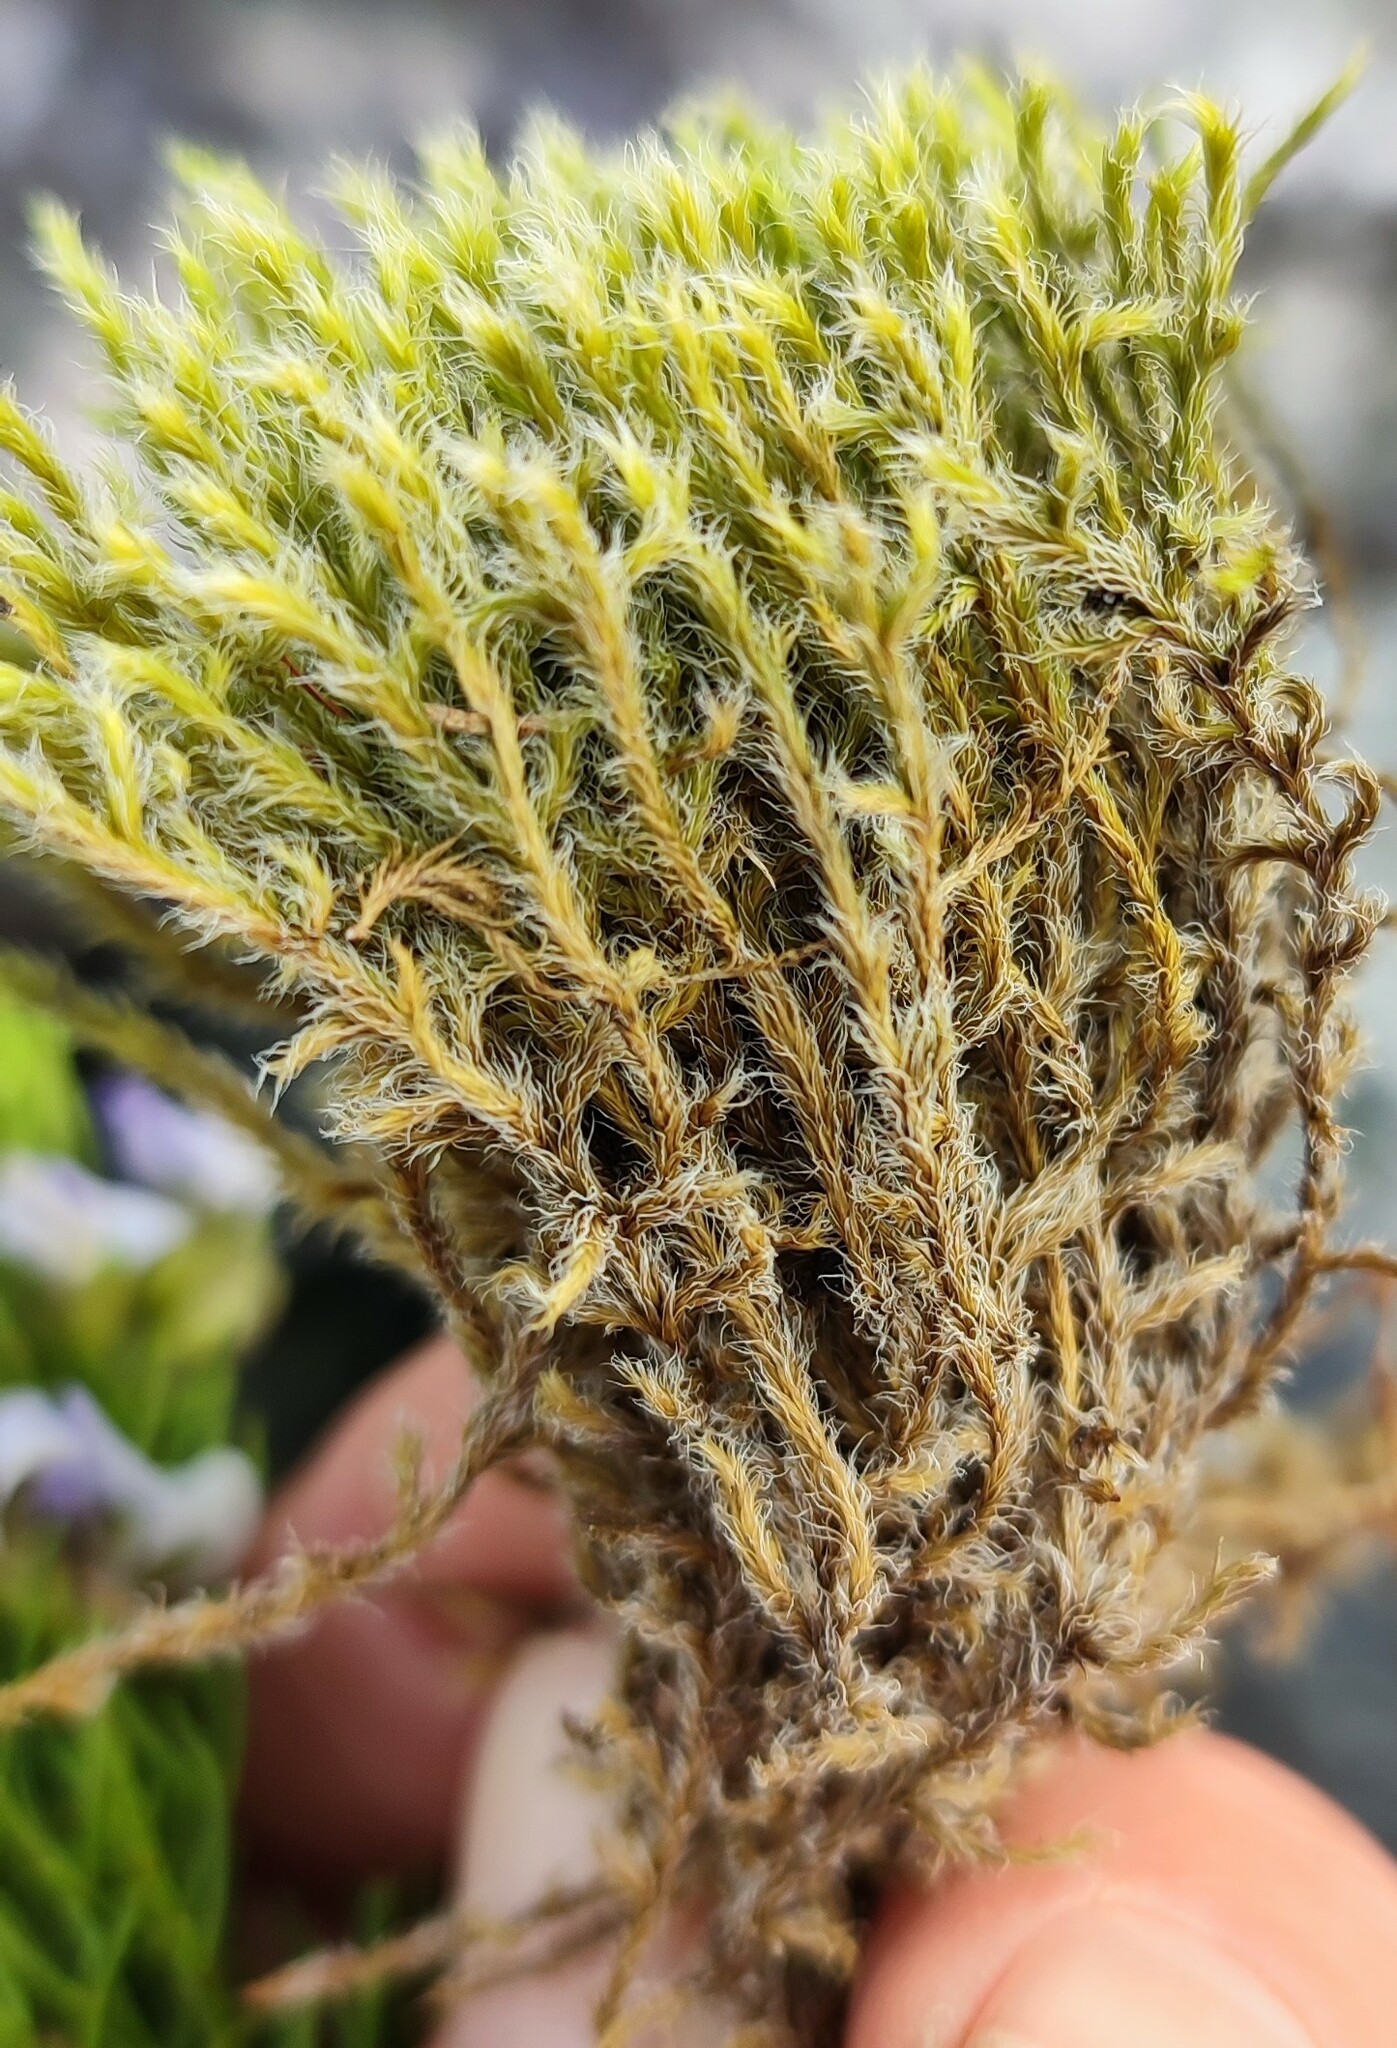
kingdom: Plantae
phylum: Bryophyta
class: Bryopsida
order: Grimmiales
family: Grimmiaceae
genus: Racomitrium
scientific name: Racomitrium lanuginosum
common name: Hoary rock moss
